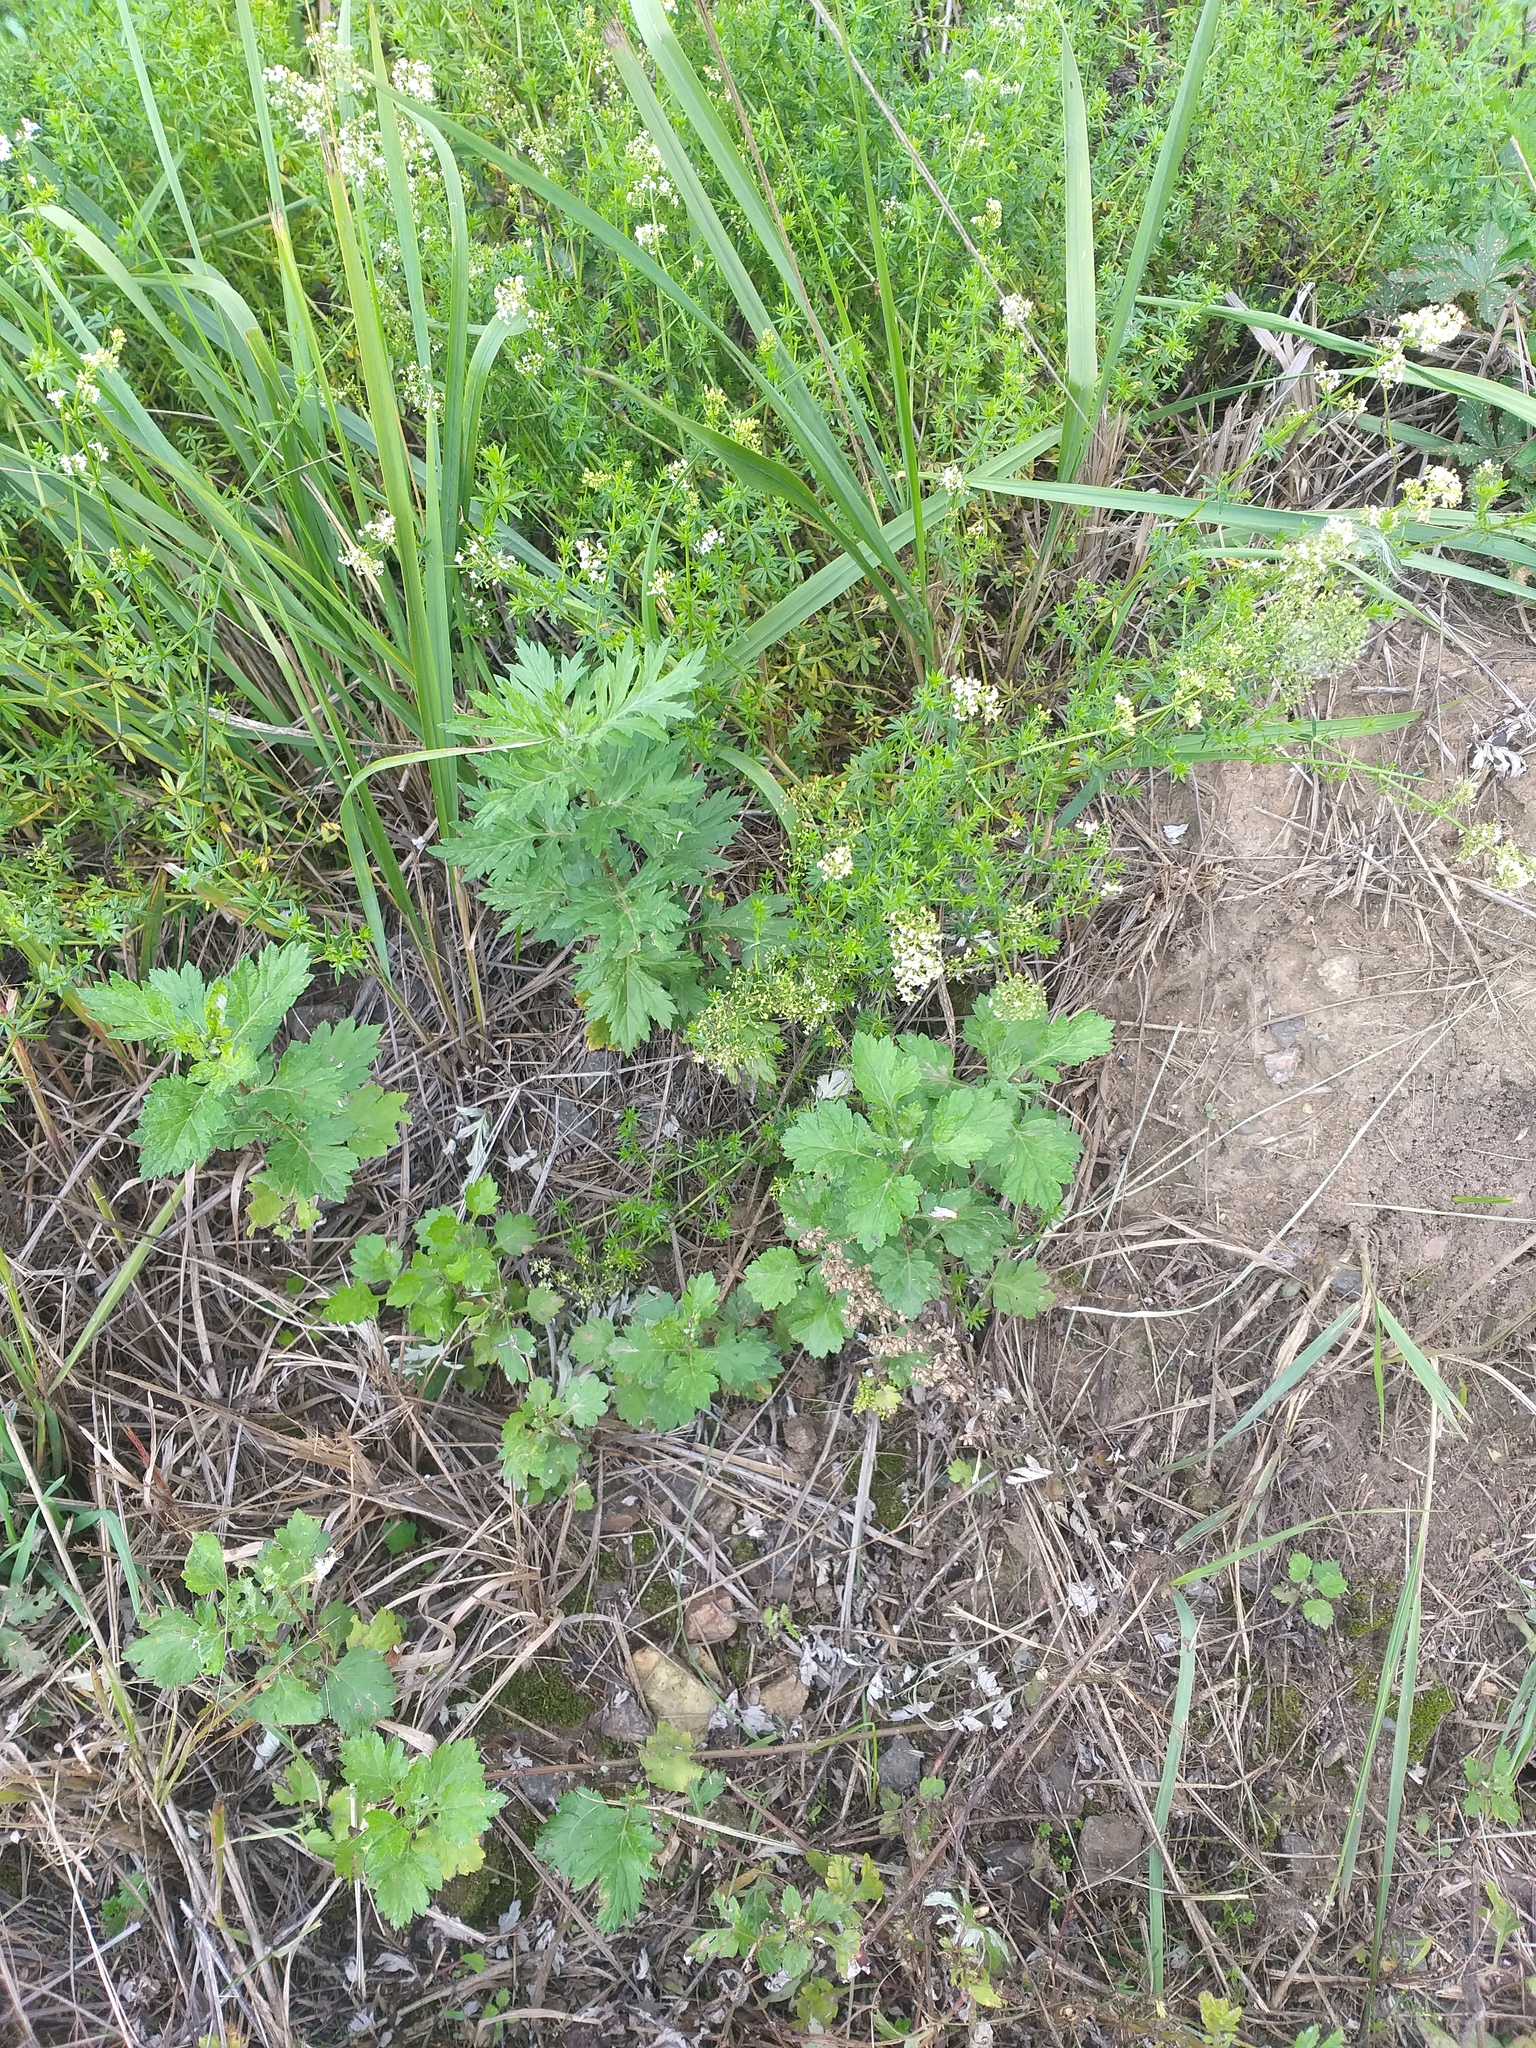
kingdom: Plantae
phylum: Tracheophyta
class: Magnoliopsida
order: Asterales
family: Asteraceae
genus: Artemisia
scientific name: Artemisia vulgaris
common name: Mugwort
